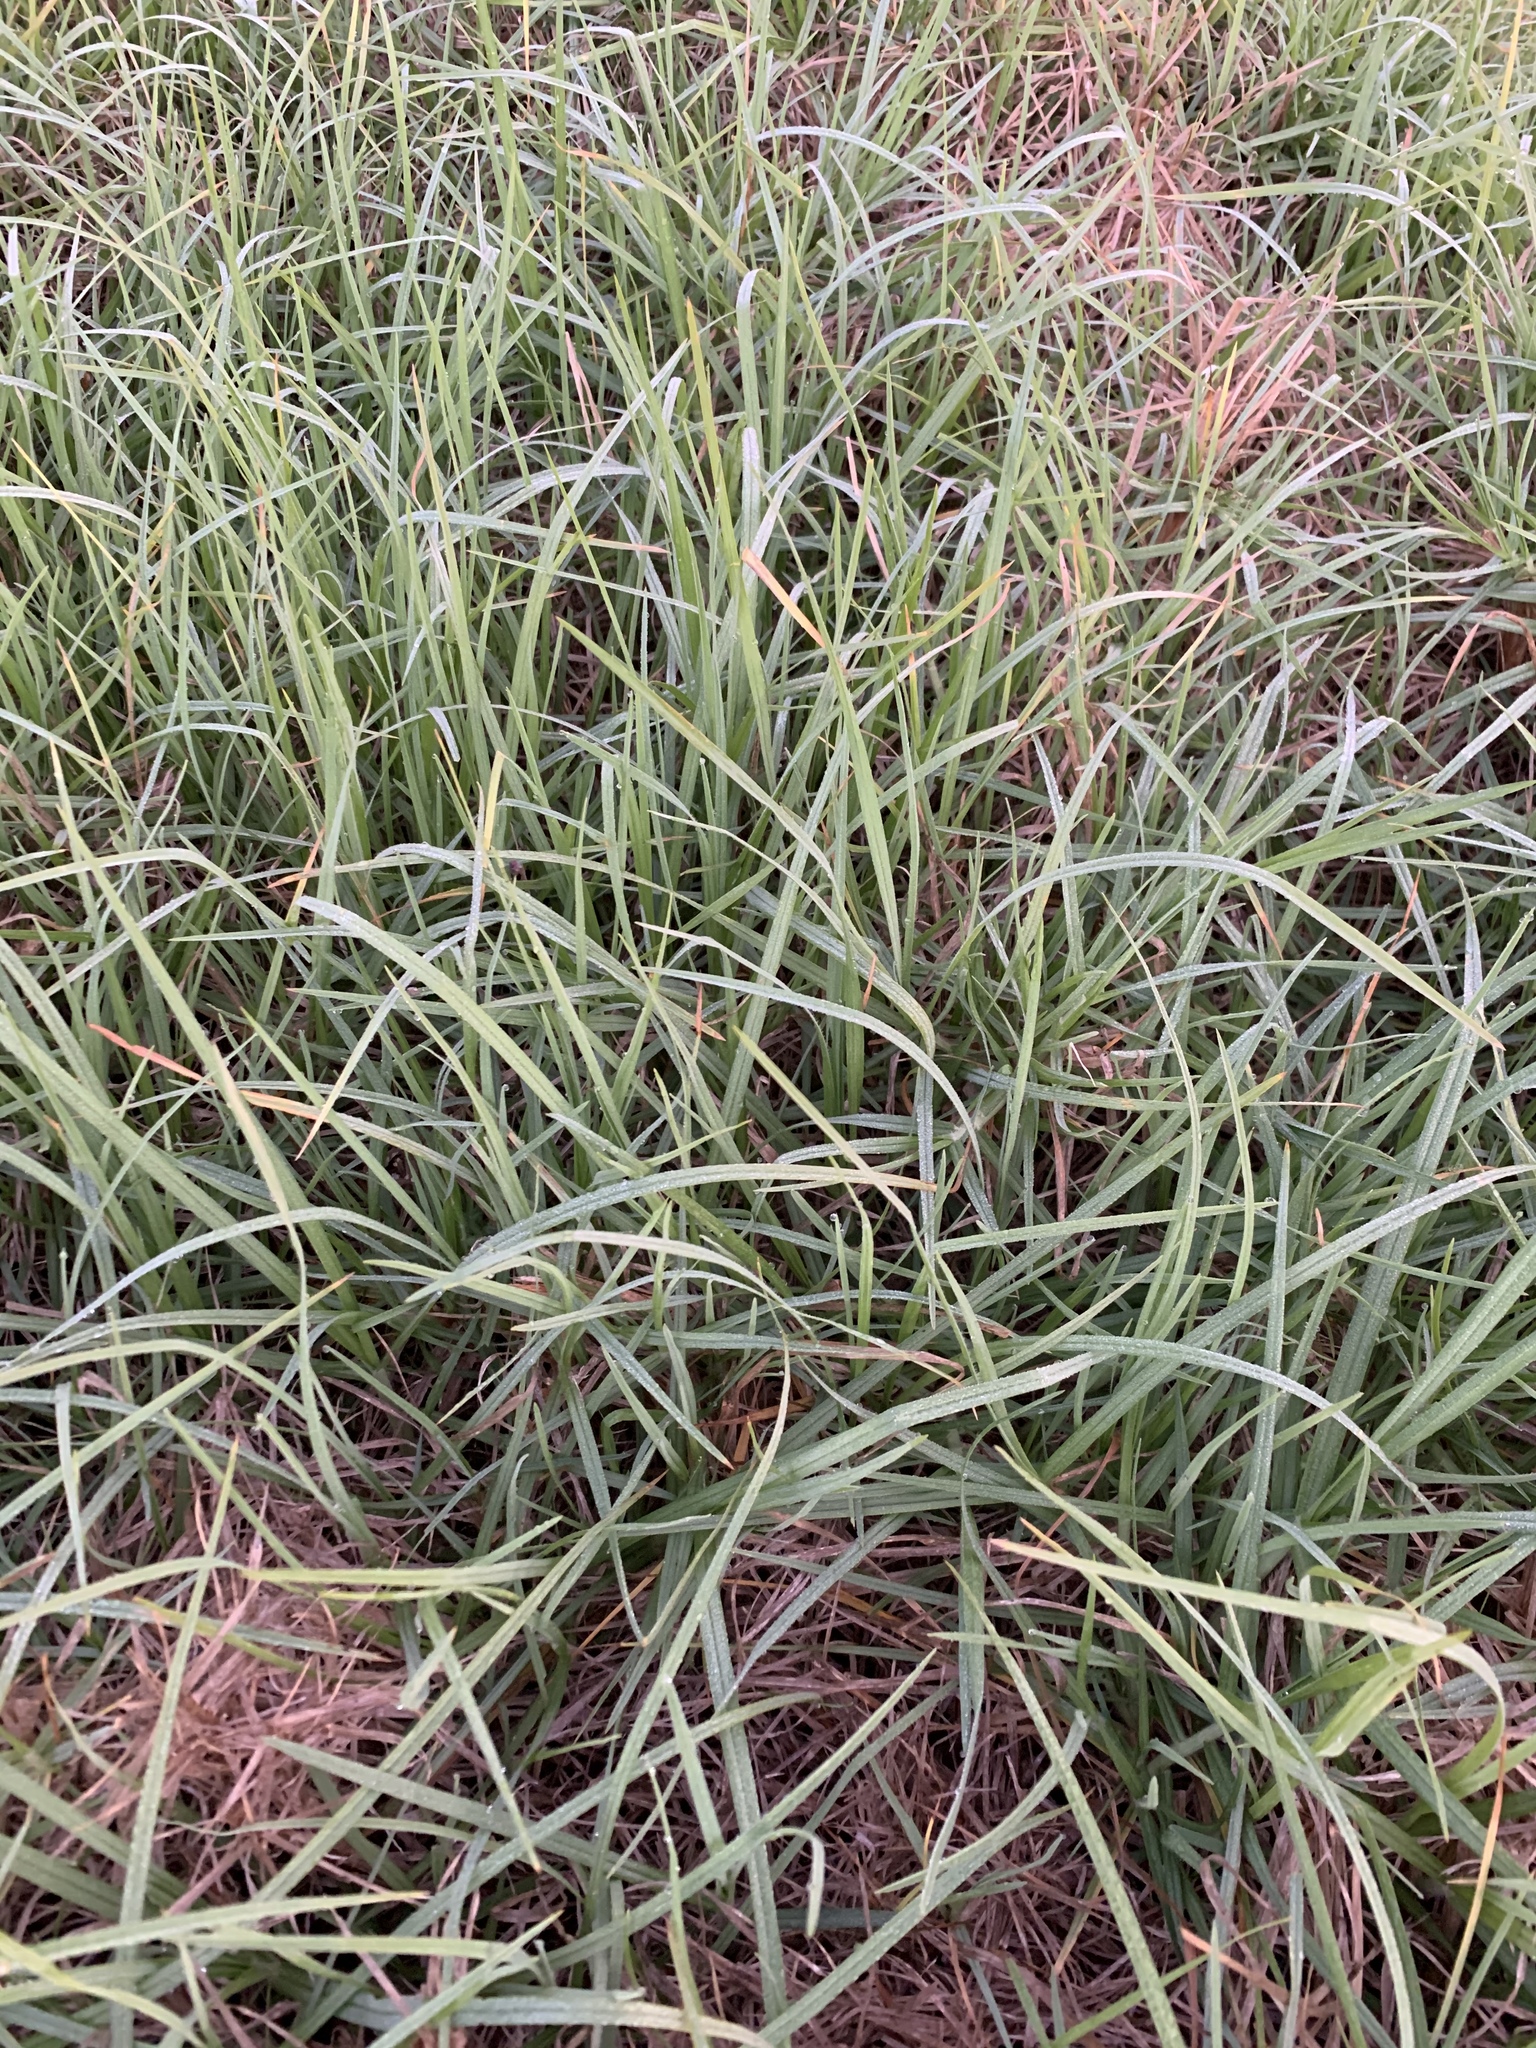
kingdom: Plantae
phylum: Tracheophyta
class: Liliopsida
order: Poales
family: Poaceae
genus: Cenchrus
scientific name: Cenchrus clandestinus
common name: Kikuyugrass
